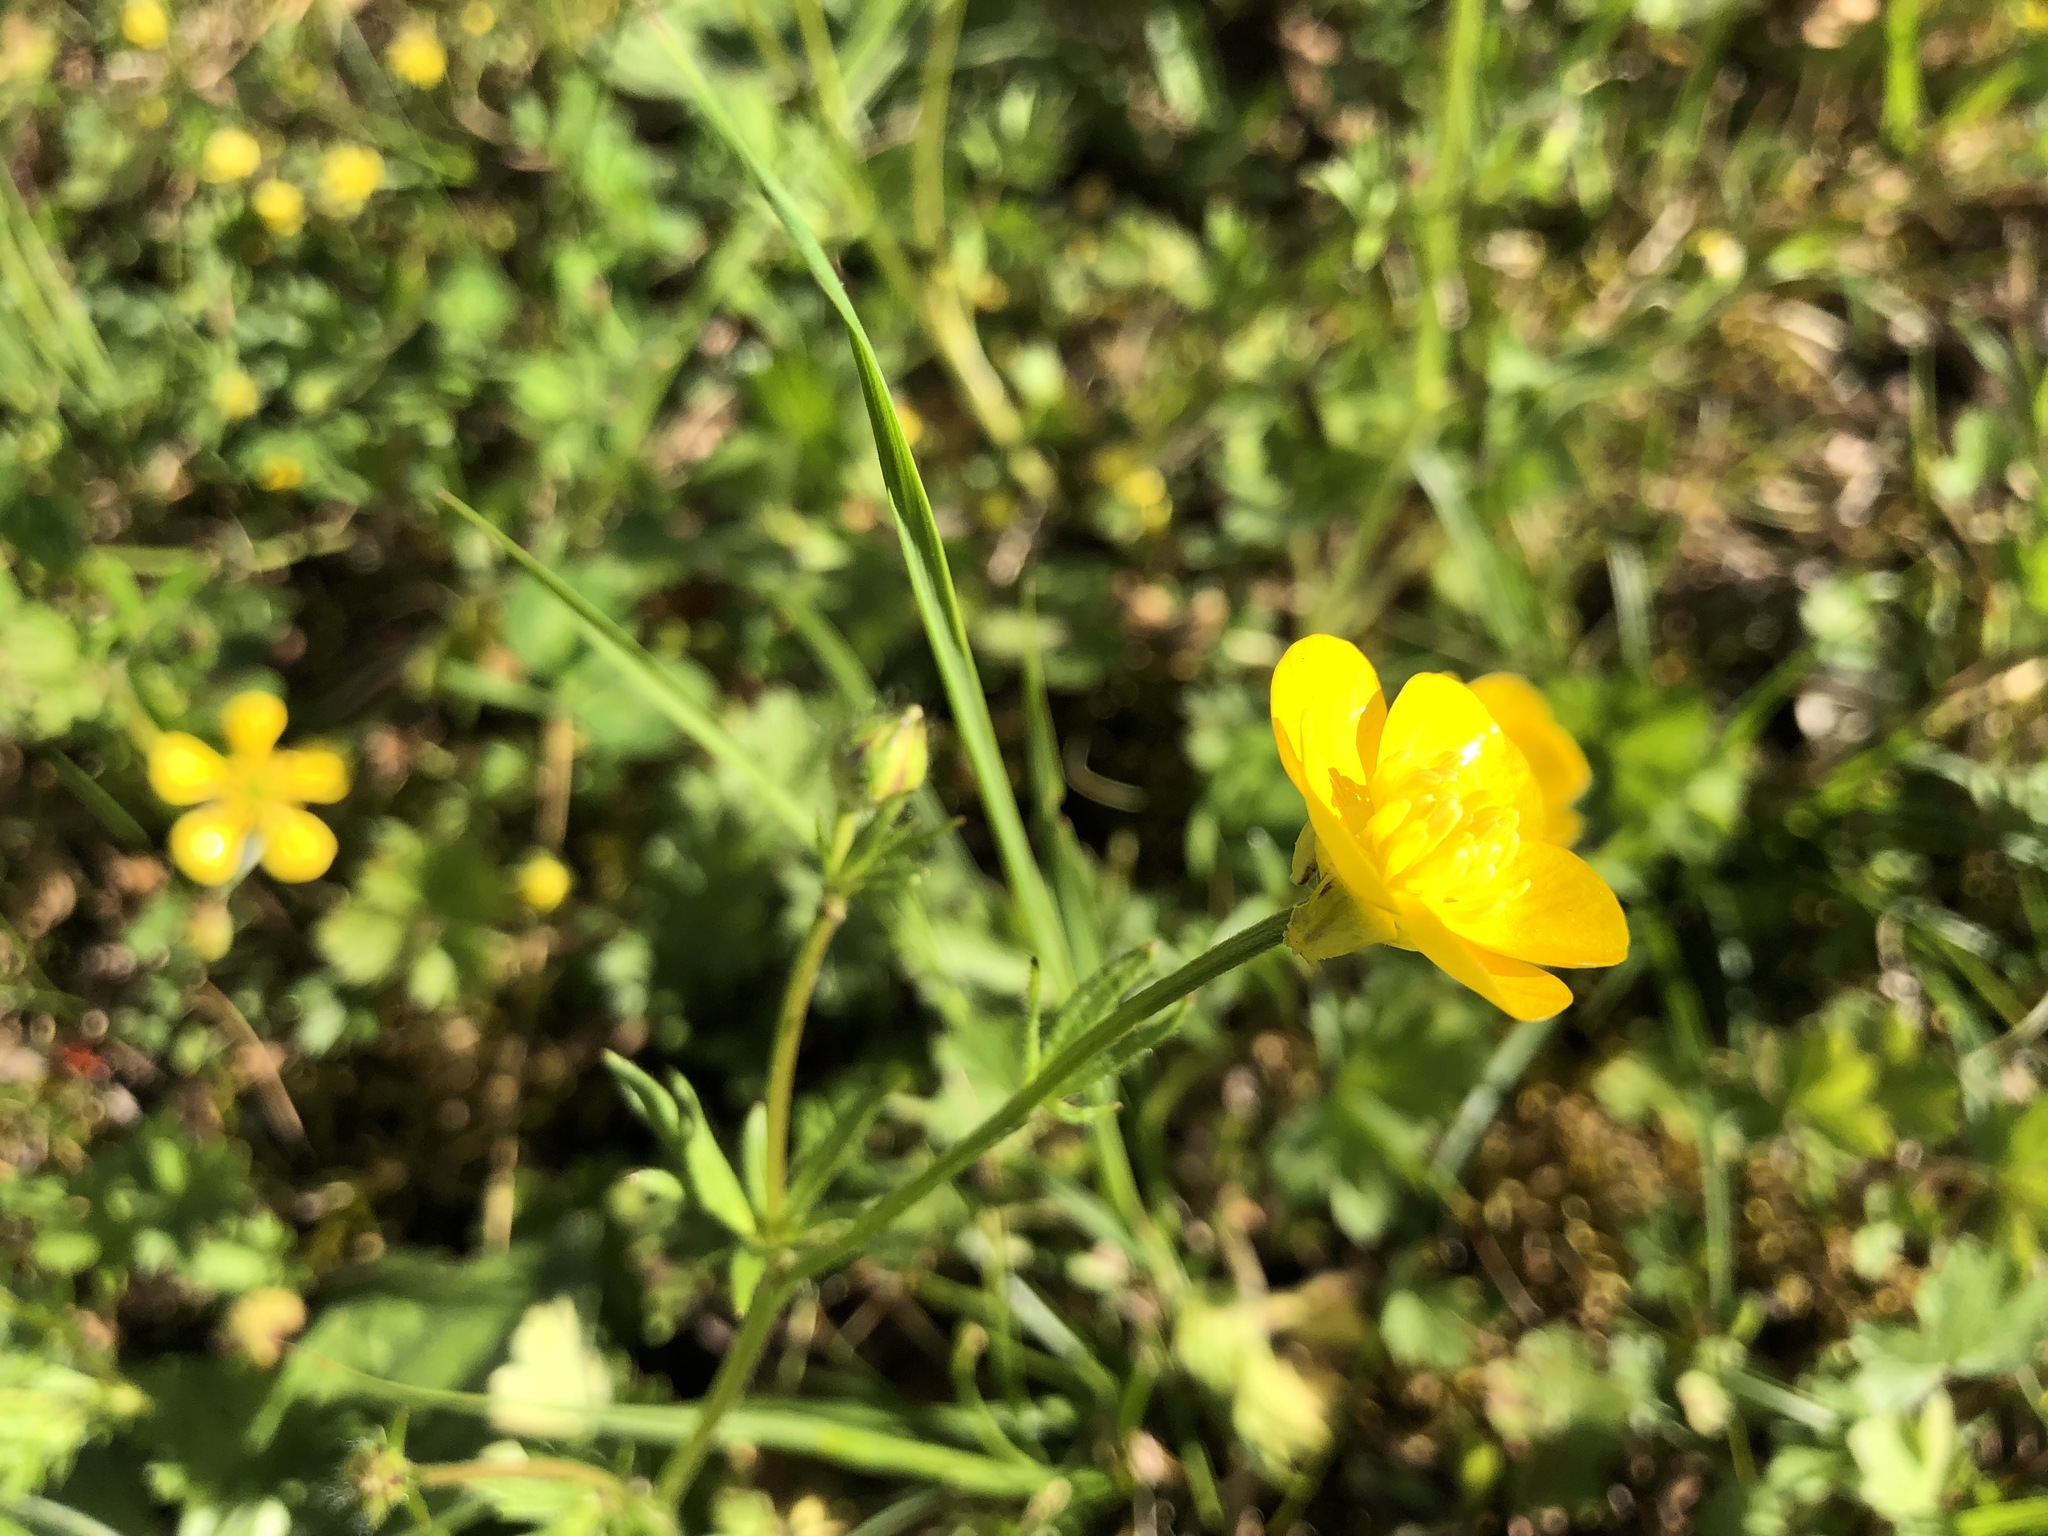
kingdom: Plantae
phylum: Tracheophyta
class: Magnoliopsida
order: Ranunculales
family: Ranunculaceae
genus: Ranunculus
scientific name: Ranunculus bulbosus
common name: Bulbous buttercup
